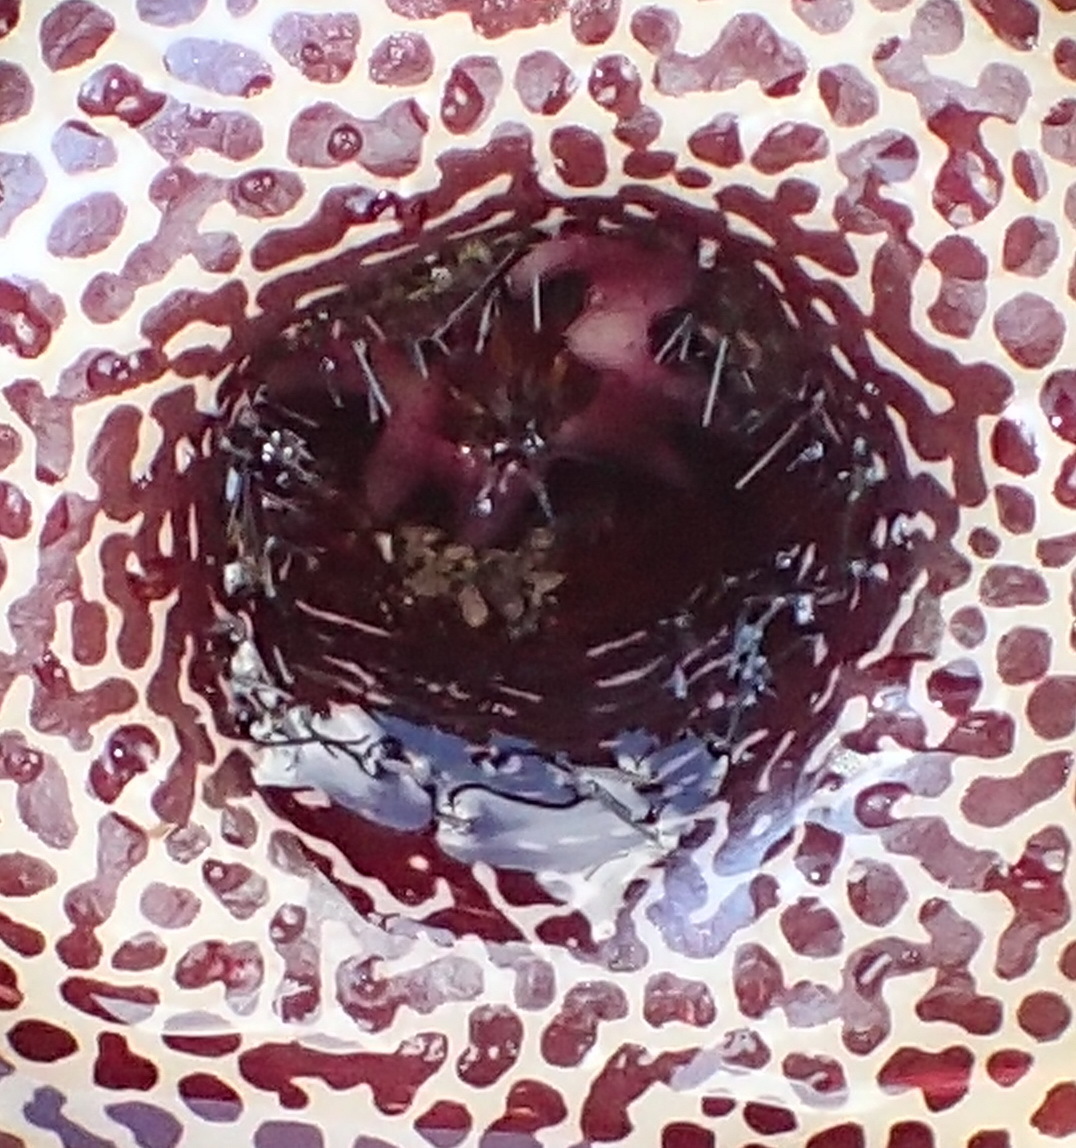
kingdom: Plantae
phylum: Tracheophyta
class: Magnoliopsida
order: Gentianales
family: Apocynaceae
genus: Ceropegia
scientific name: Ceropegia praestans
